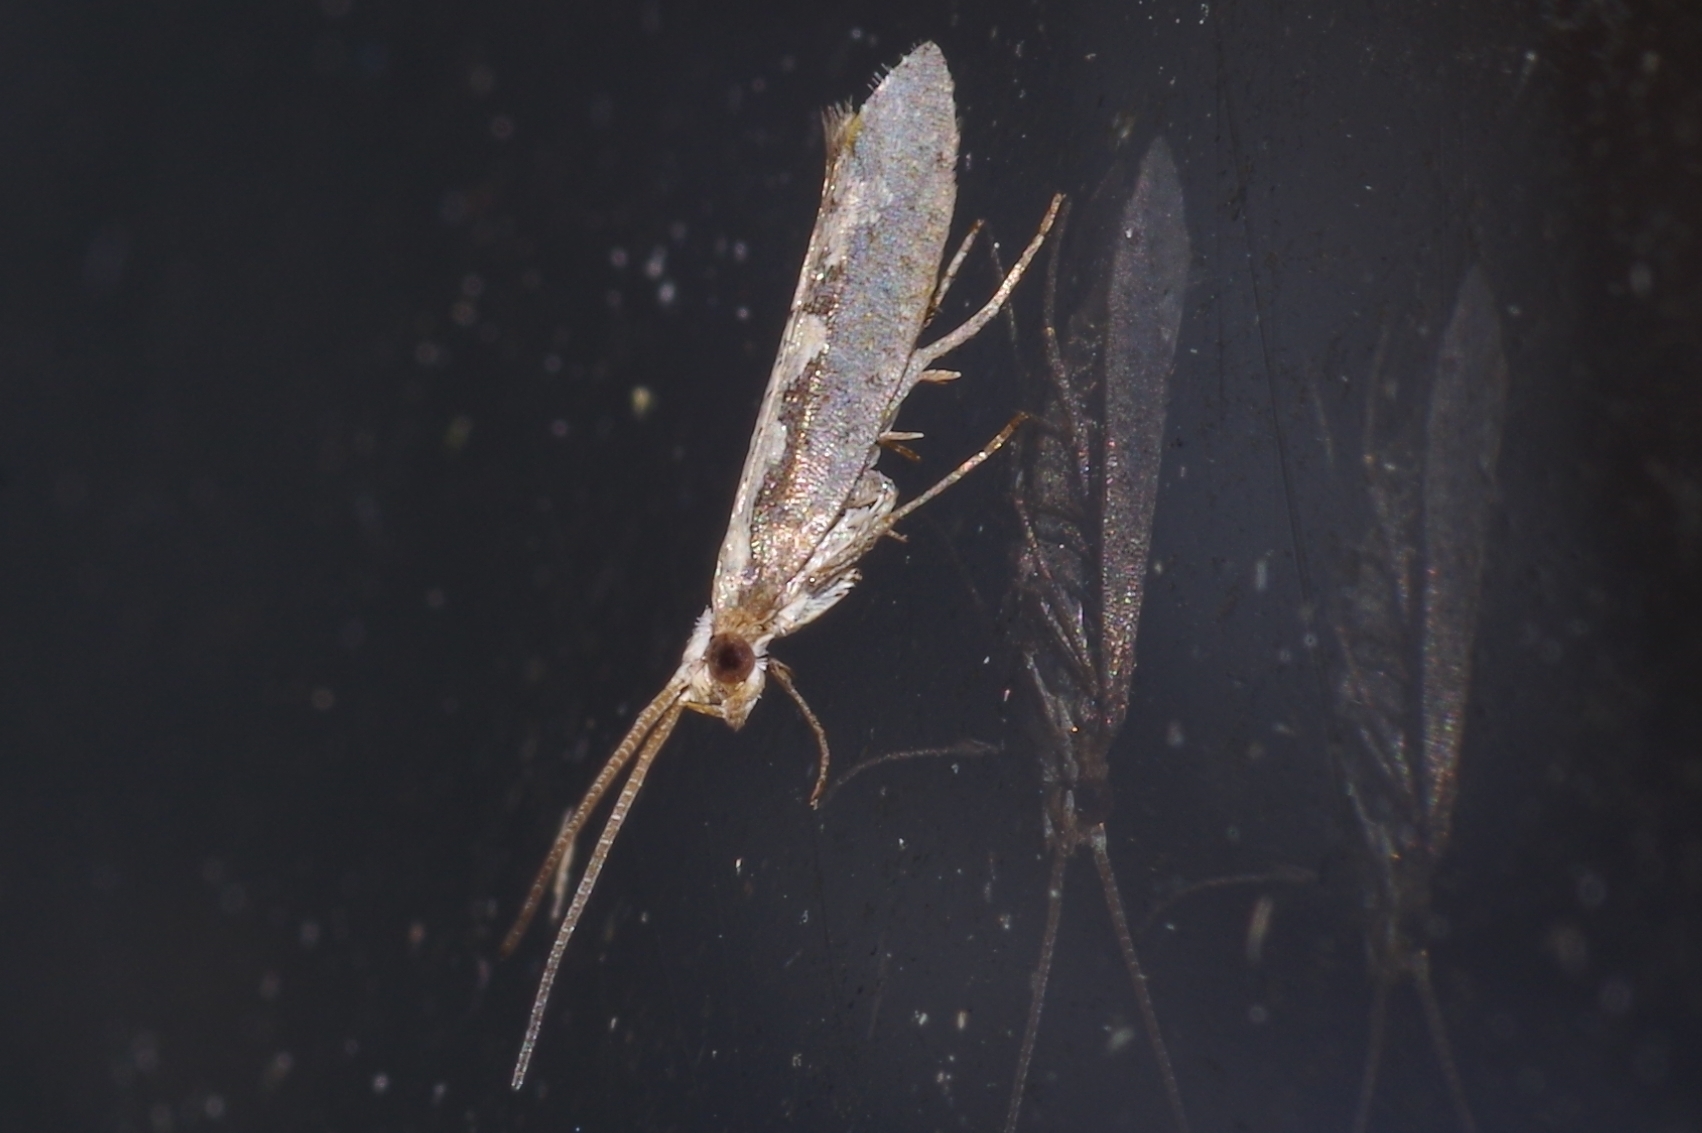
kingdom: Animalia
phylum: Arthropoda
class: Insecta
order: Lepidoptera
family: Plutellidae
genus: Plutella
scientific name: Plutella xylostella
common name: Diamond-back moth
